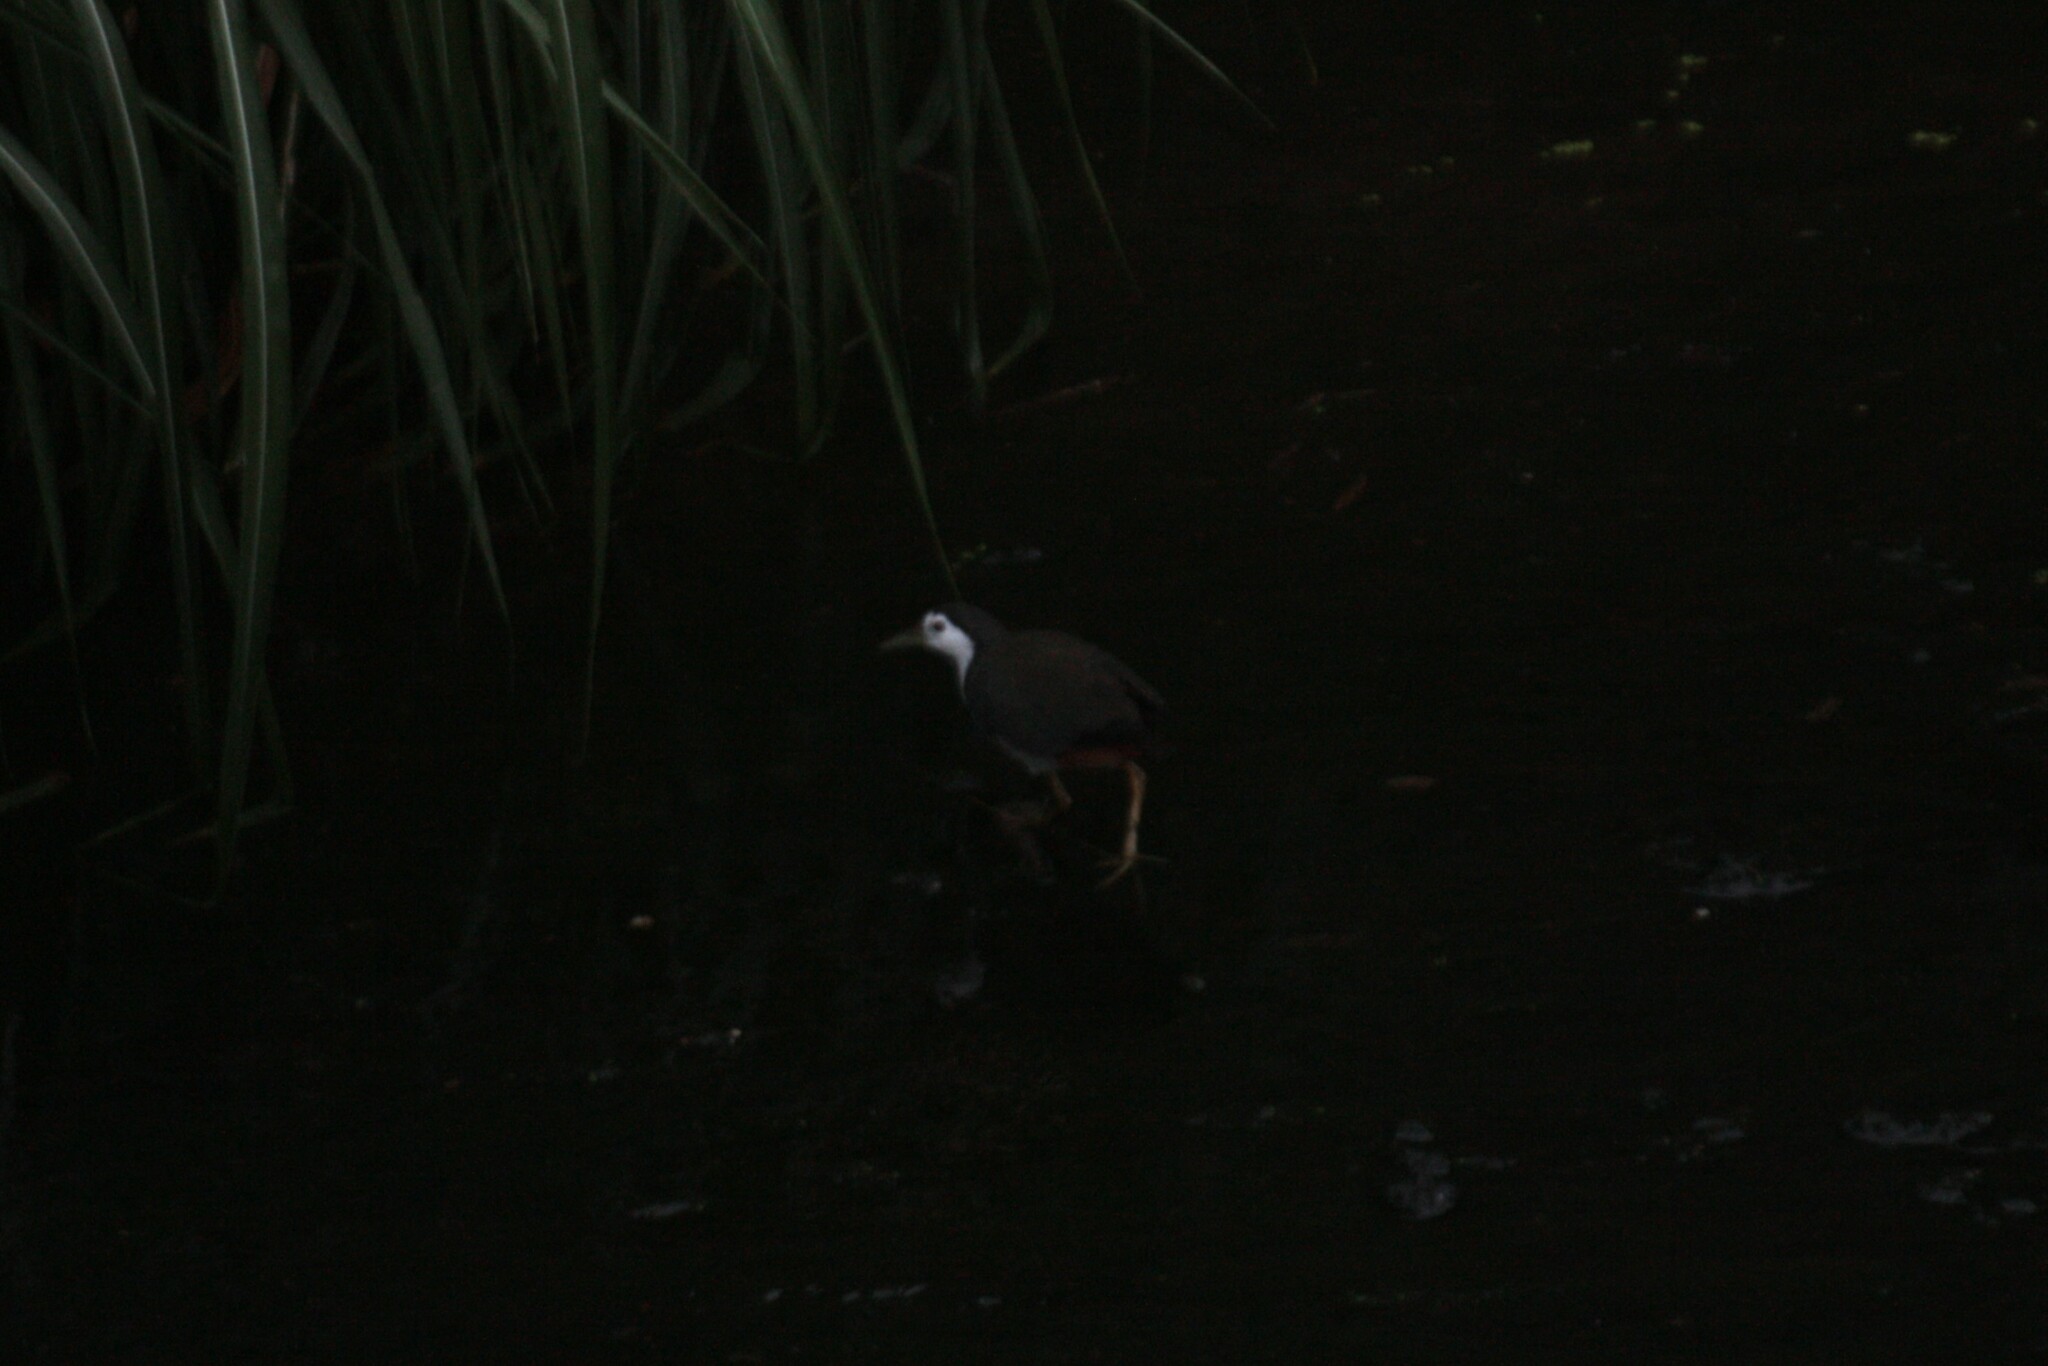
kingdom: Animalia
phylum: Chordata
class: Aves
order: Gruiformes
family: Rallidae
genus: Amaurornis
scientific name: Amaurornis phoenicurus
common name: White-breasted waterhen
